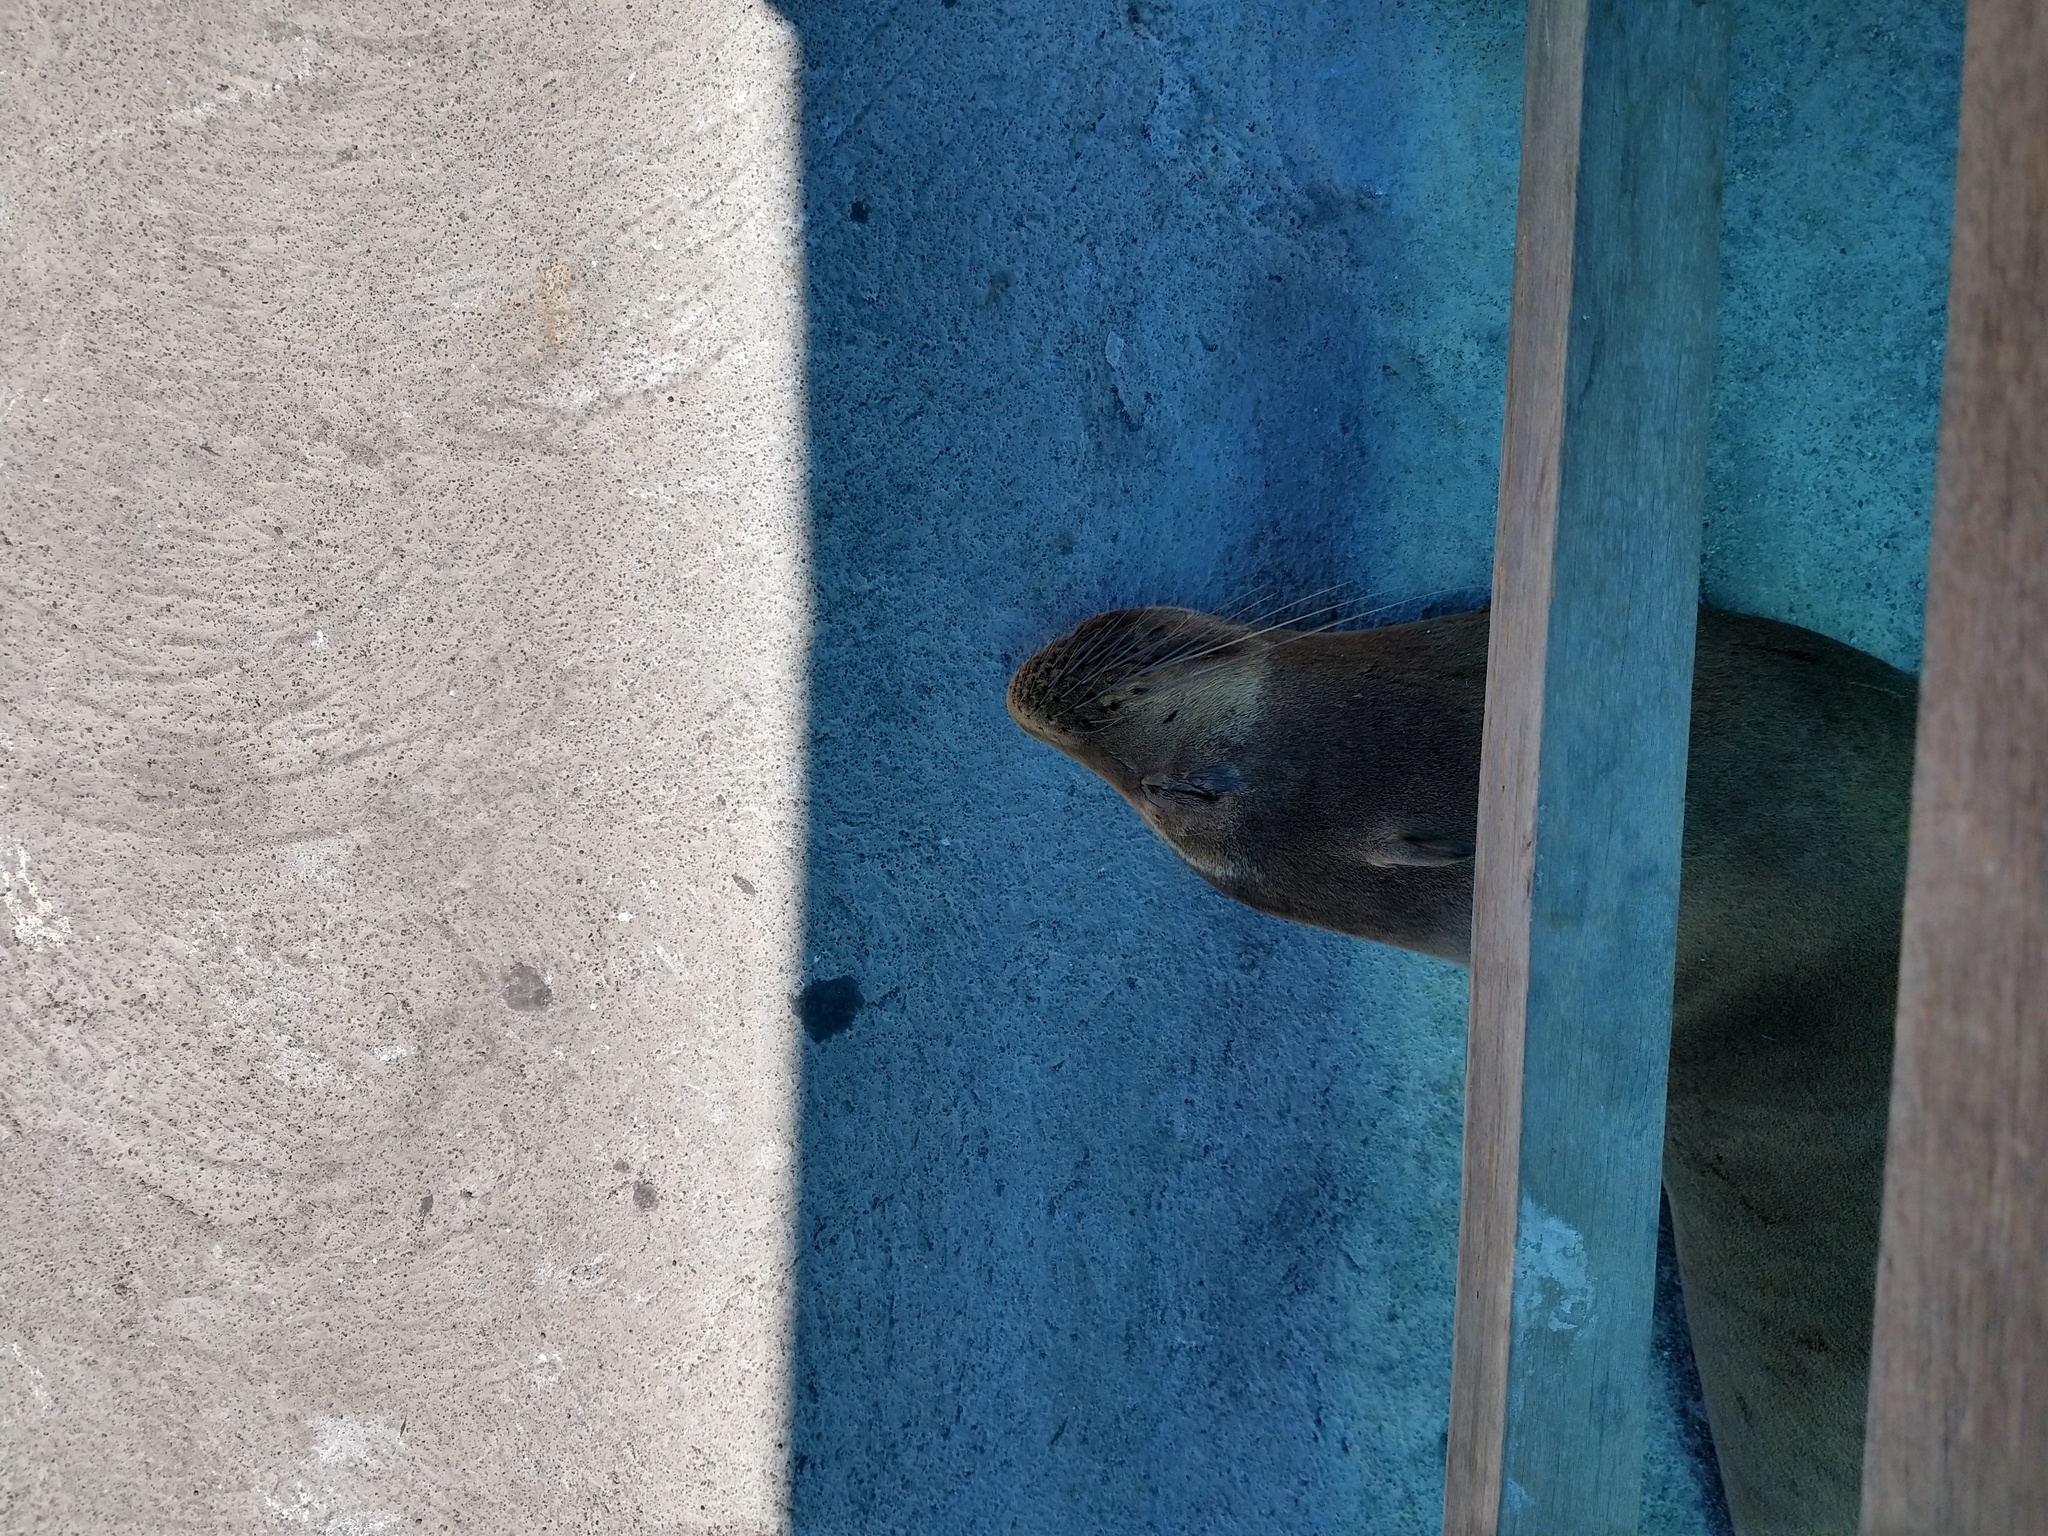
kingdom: Animalia
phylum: Chordata
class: Mammalia
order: Carnivora
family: Otariidae
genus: Zalophus
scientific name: Zalophus wollebaeki
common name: Galapagos sea lion
